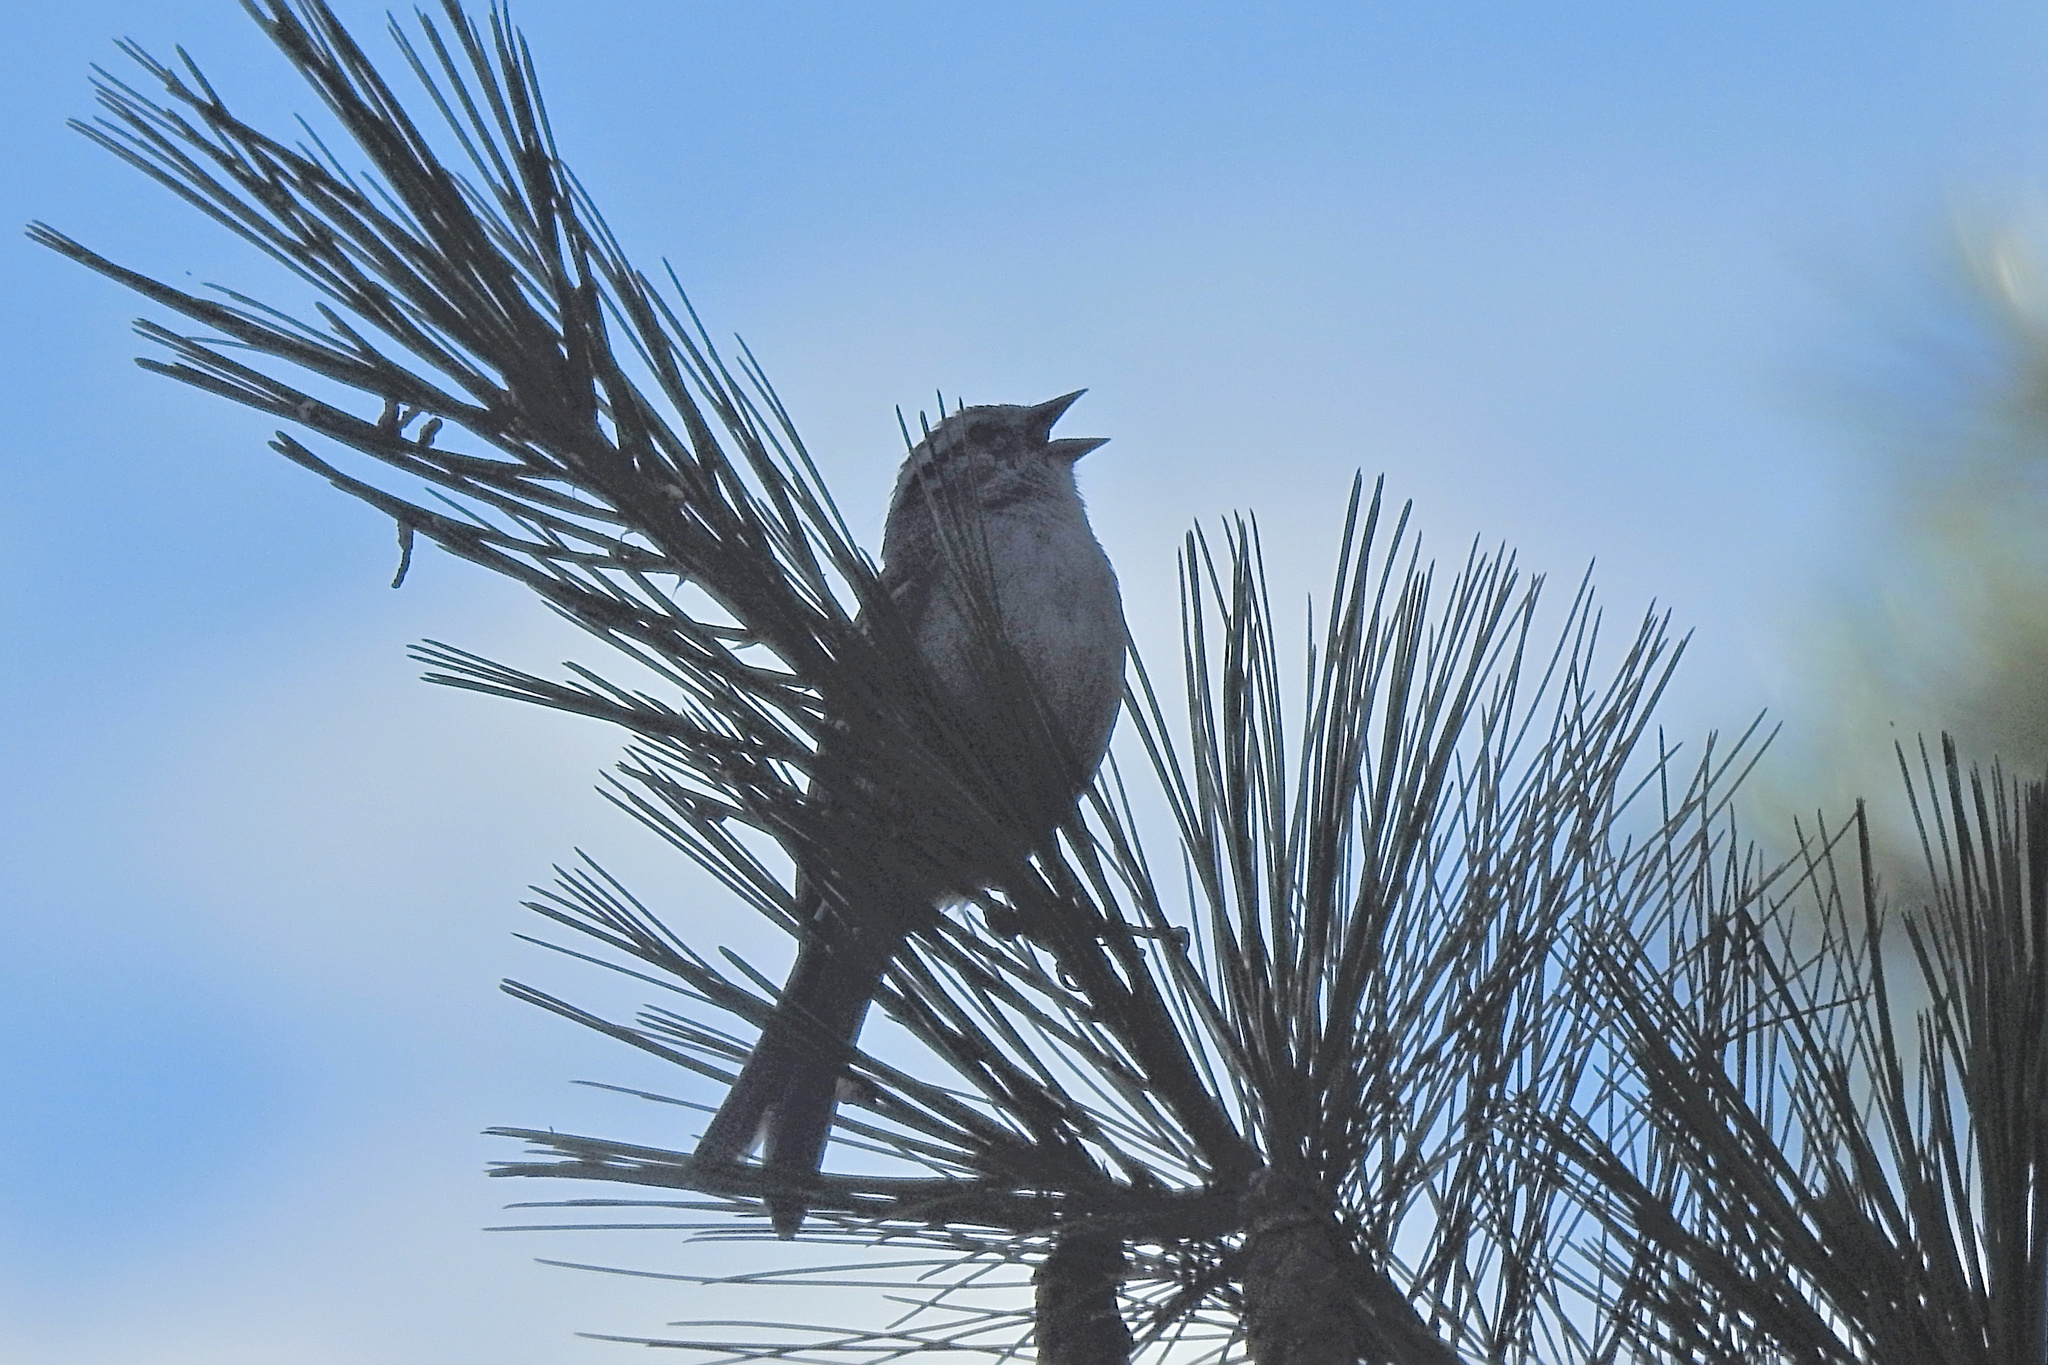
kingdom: Animalia
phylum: Chordata
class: Aves
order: Passeriformes
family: Passerellidae
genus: Spizella
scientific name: Spizella passerina
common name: Chipping sparrow
